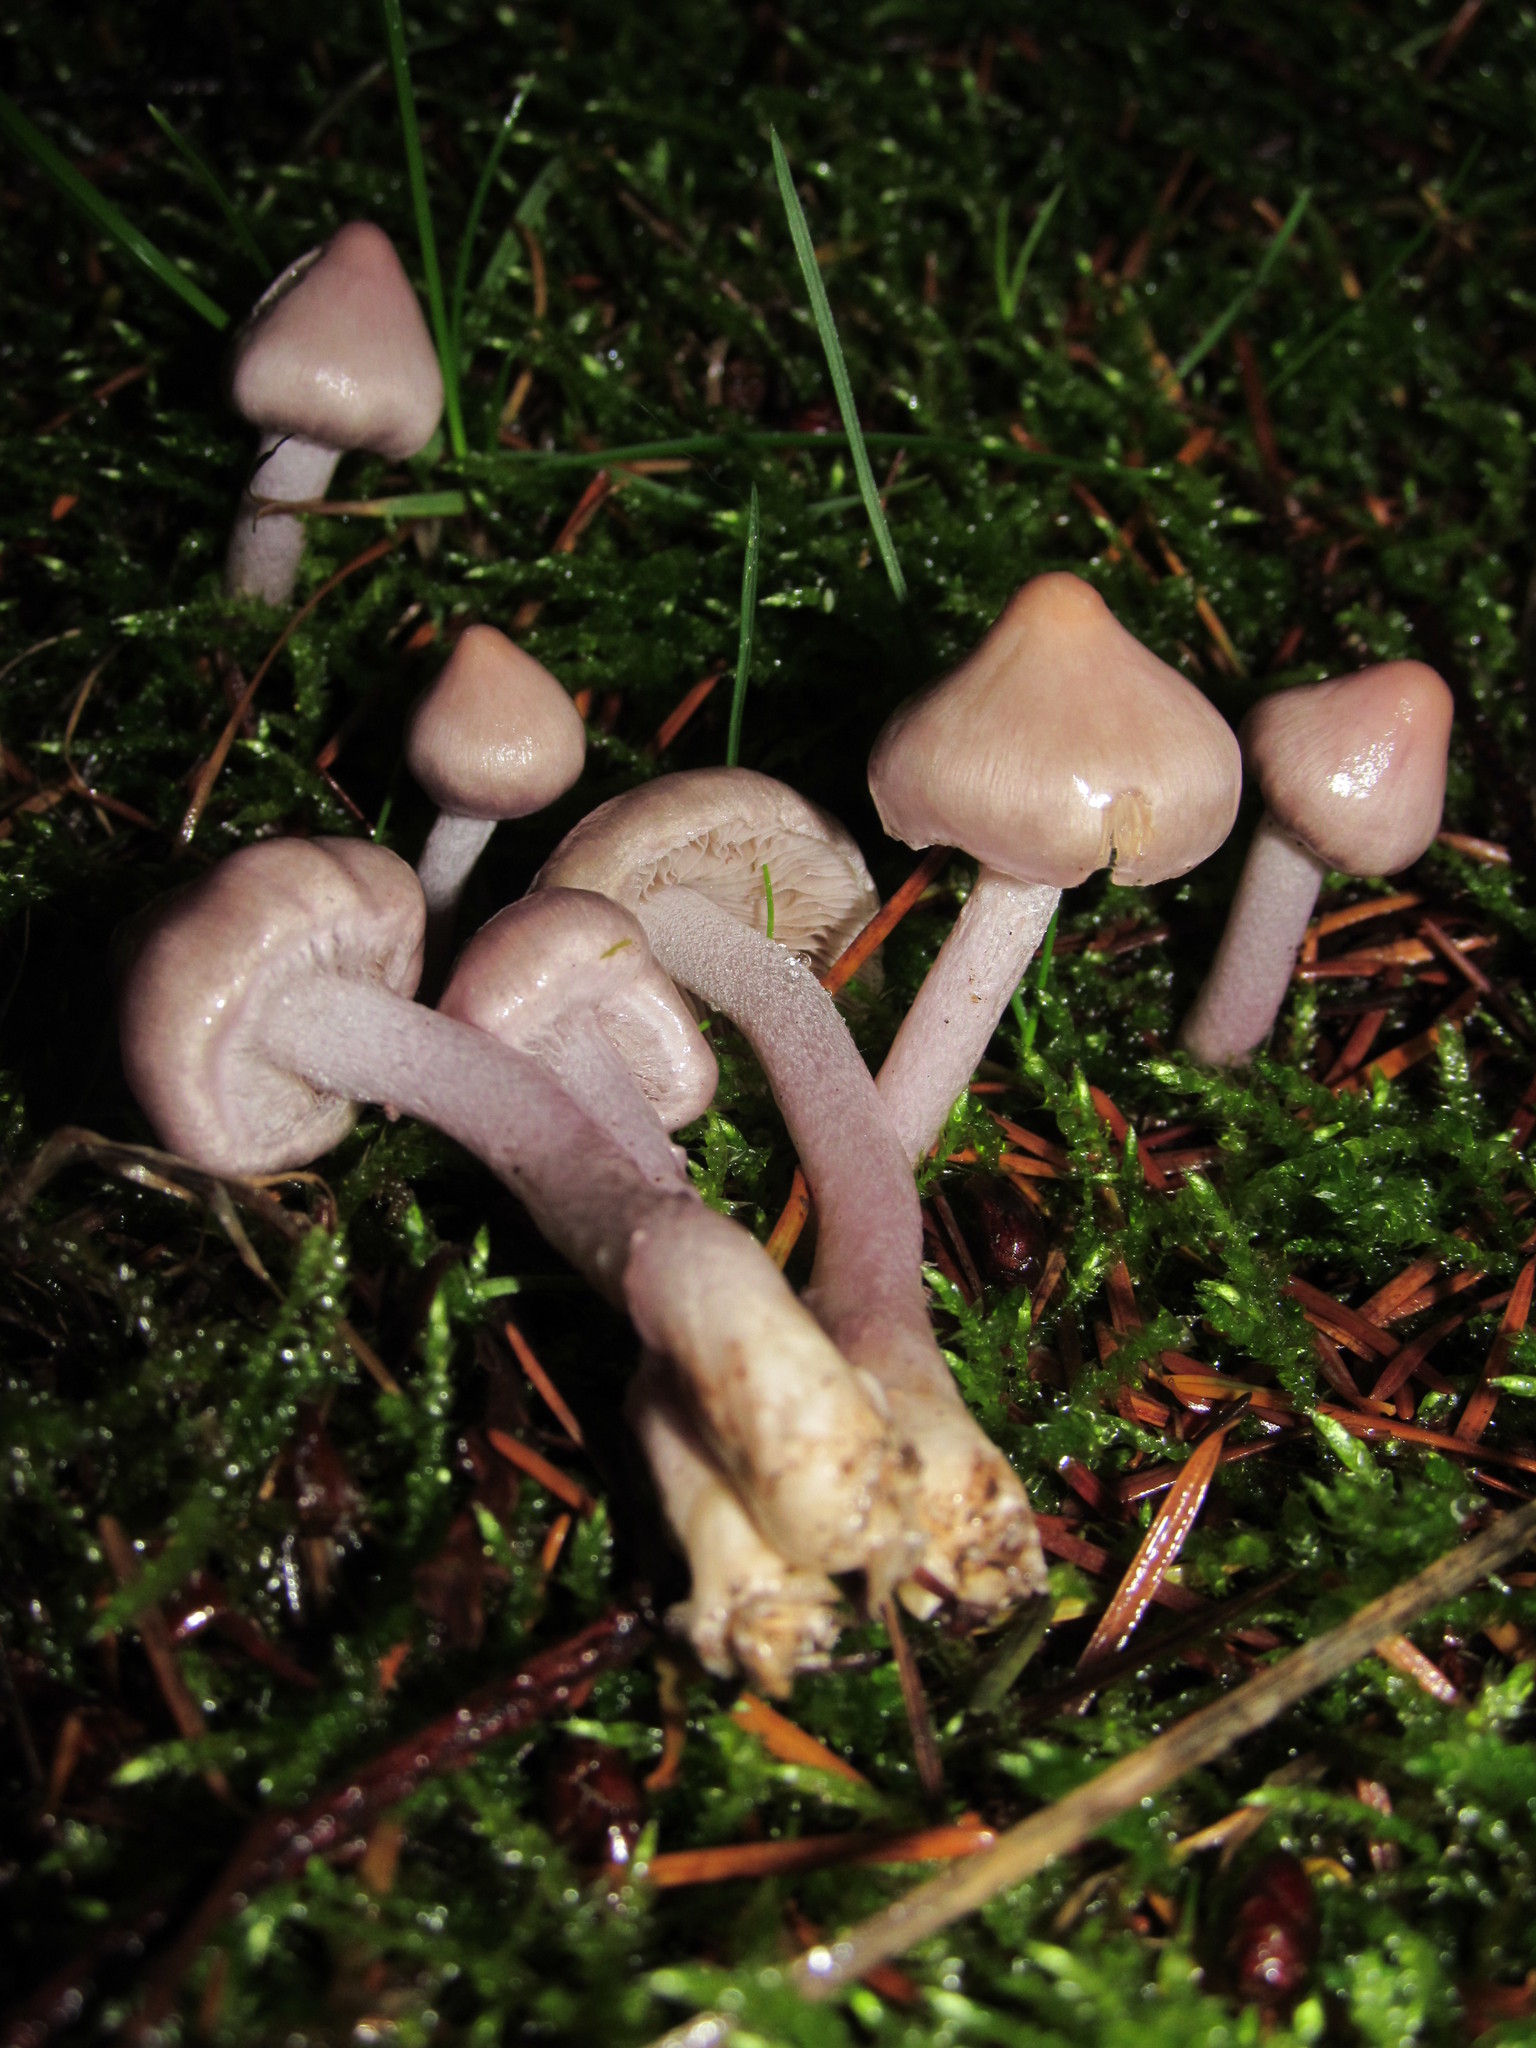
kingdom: Fungi
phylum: Basidiomycota
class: Agaricomycetes
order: Agaricales
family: Inocybaceae
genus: Inocybe
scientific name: Inocybe geophylla
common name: White fibrecap
